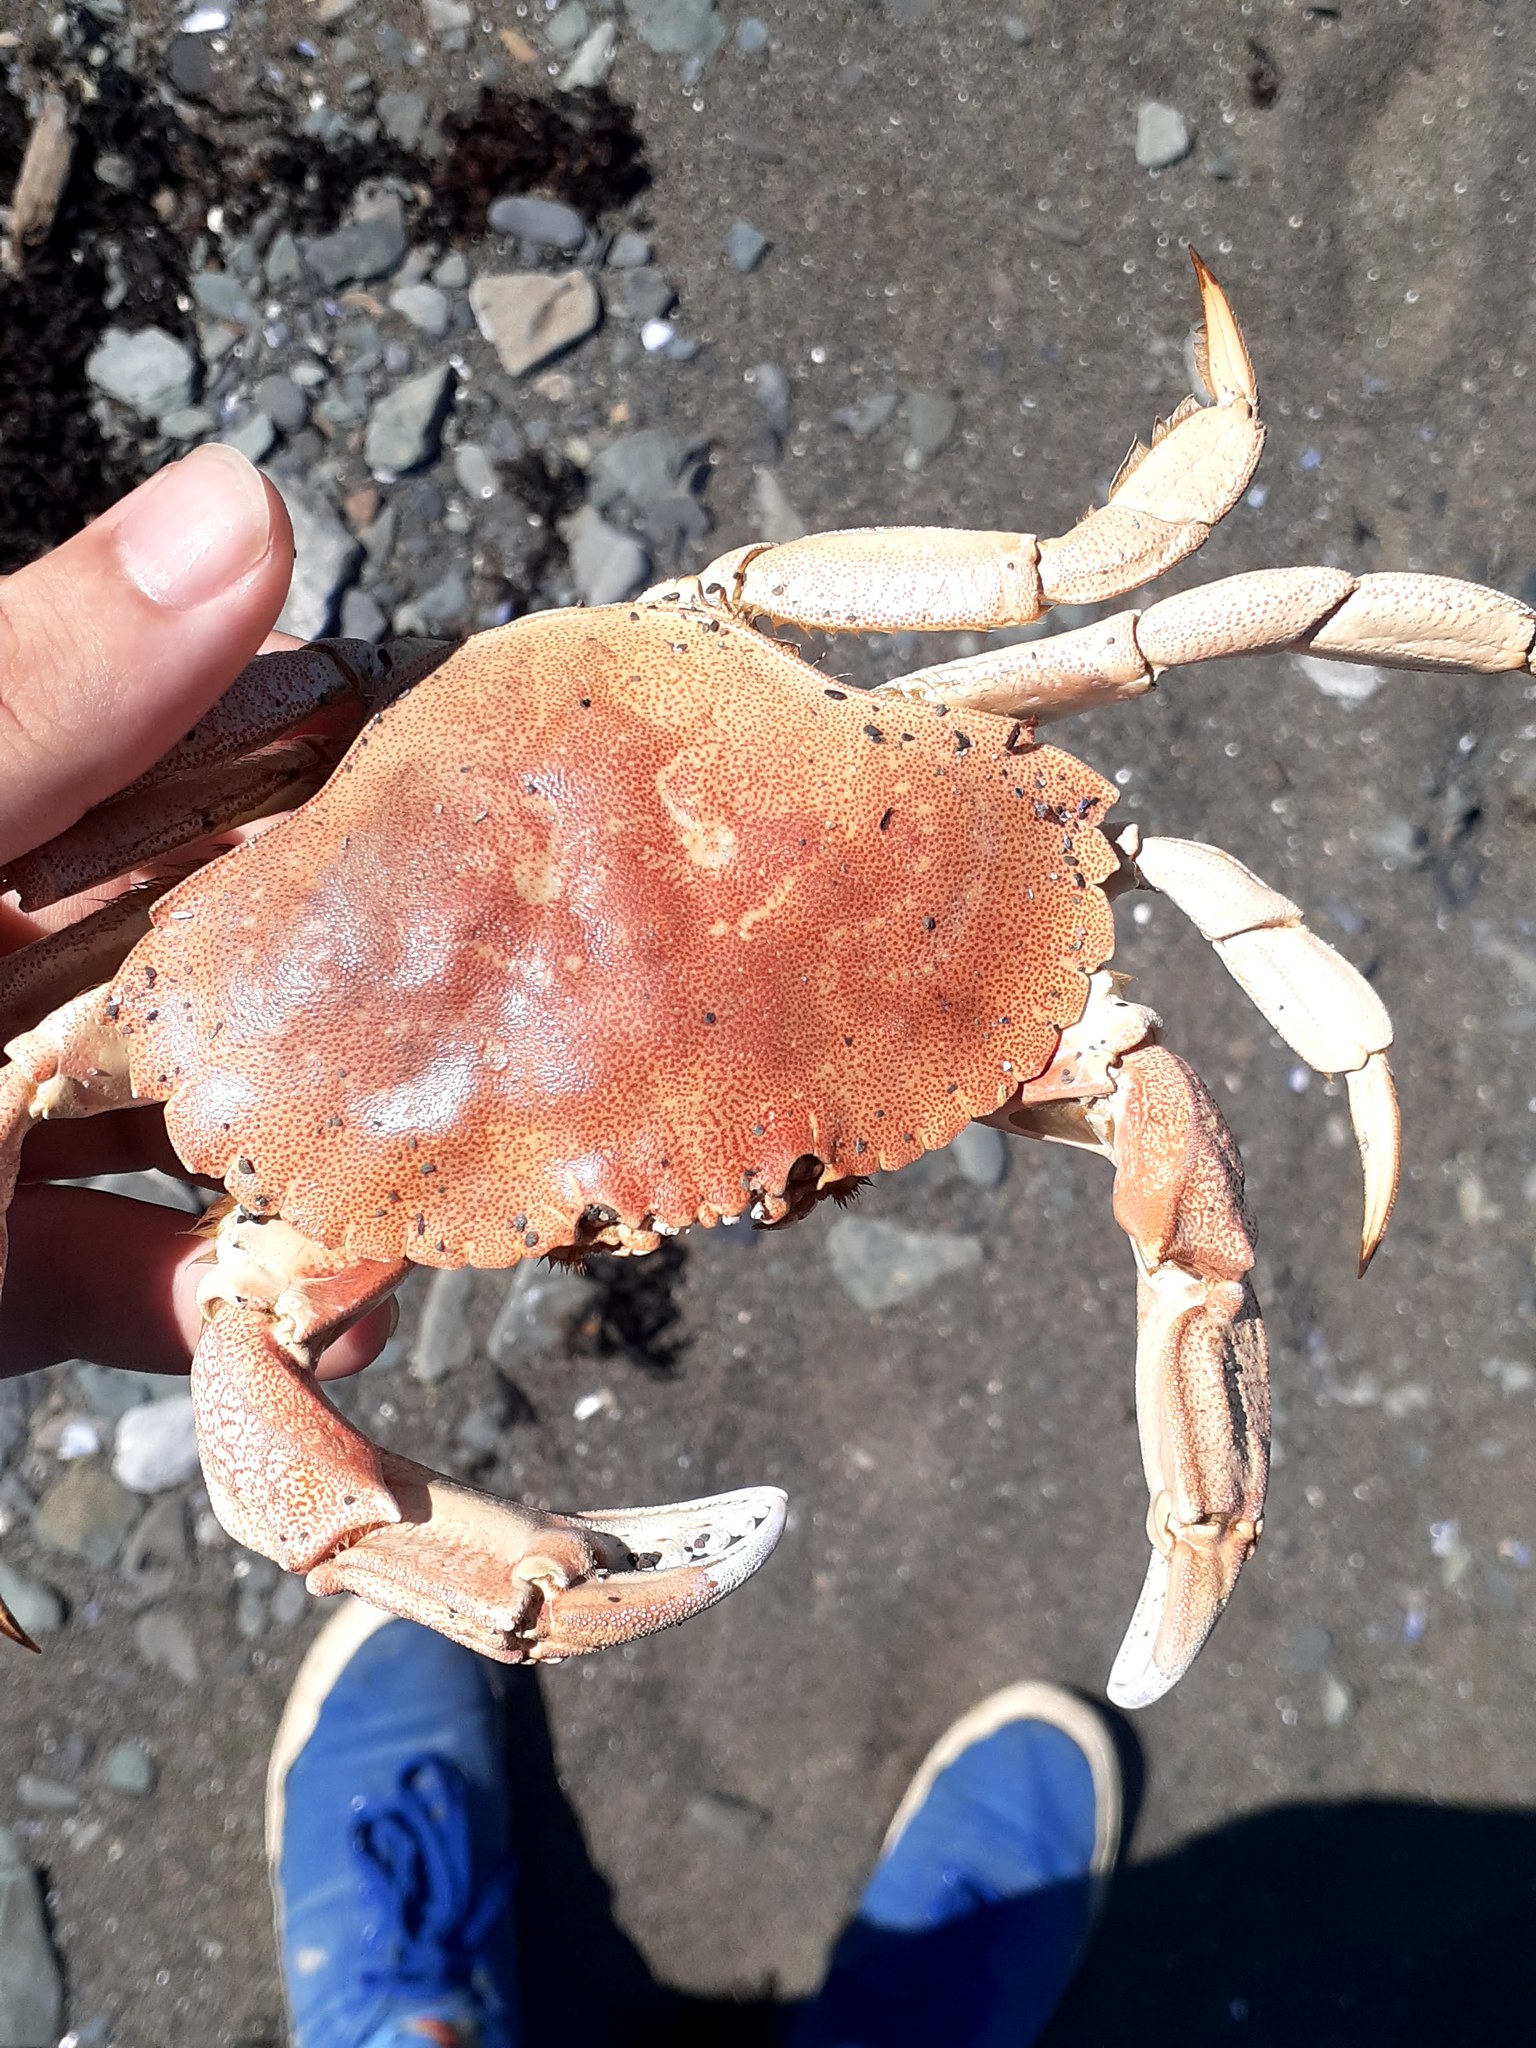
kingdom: Animalia
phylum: Arthropoda
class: Malacostraca
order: Decapoda
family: Cancridae
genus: Cancer
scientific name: Cancer irroratus
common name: Atlantic rock crab
